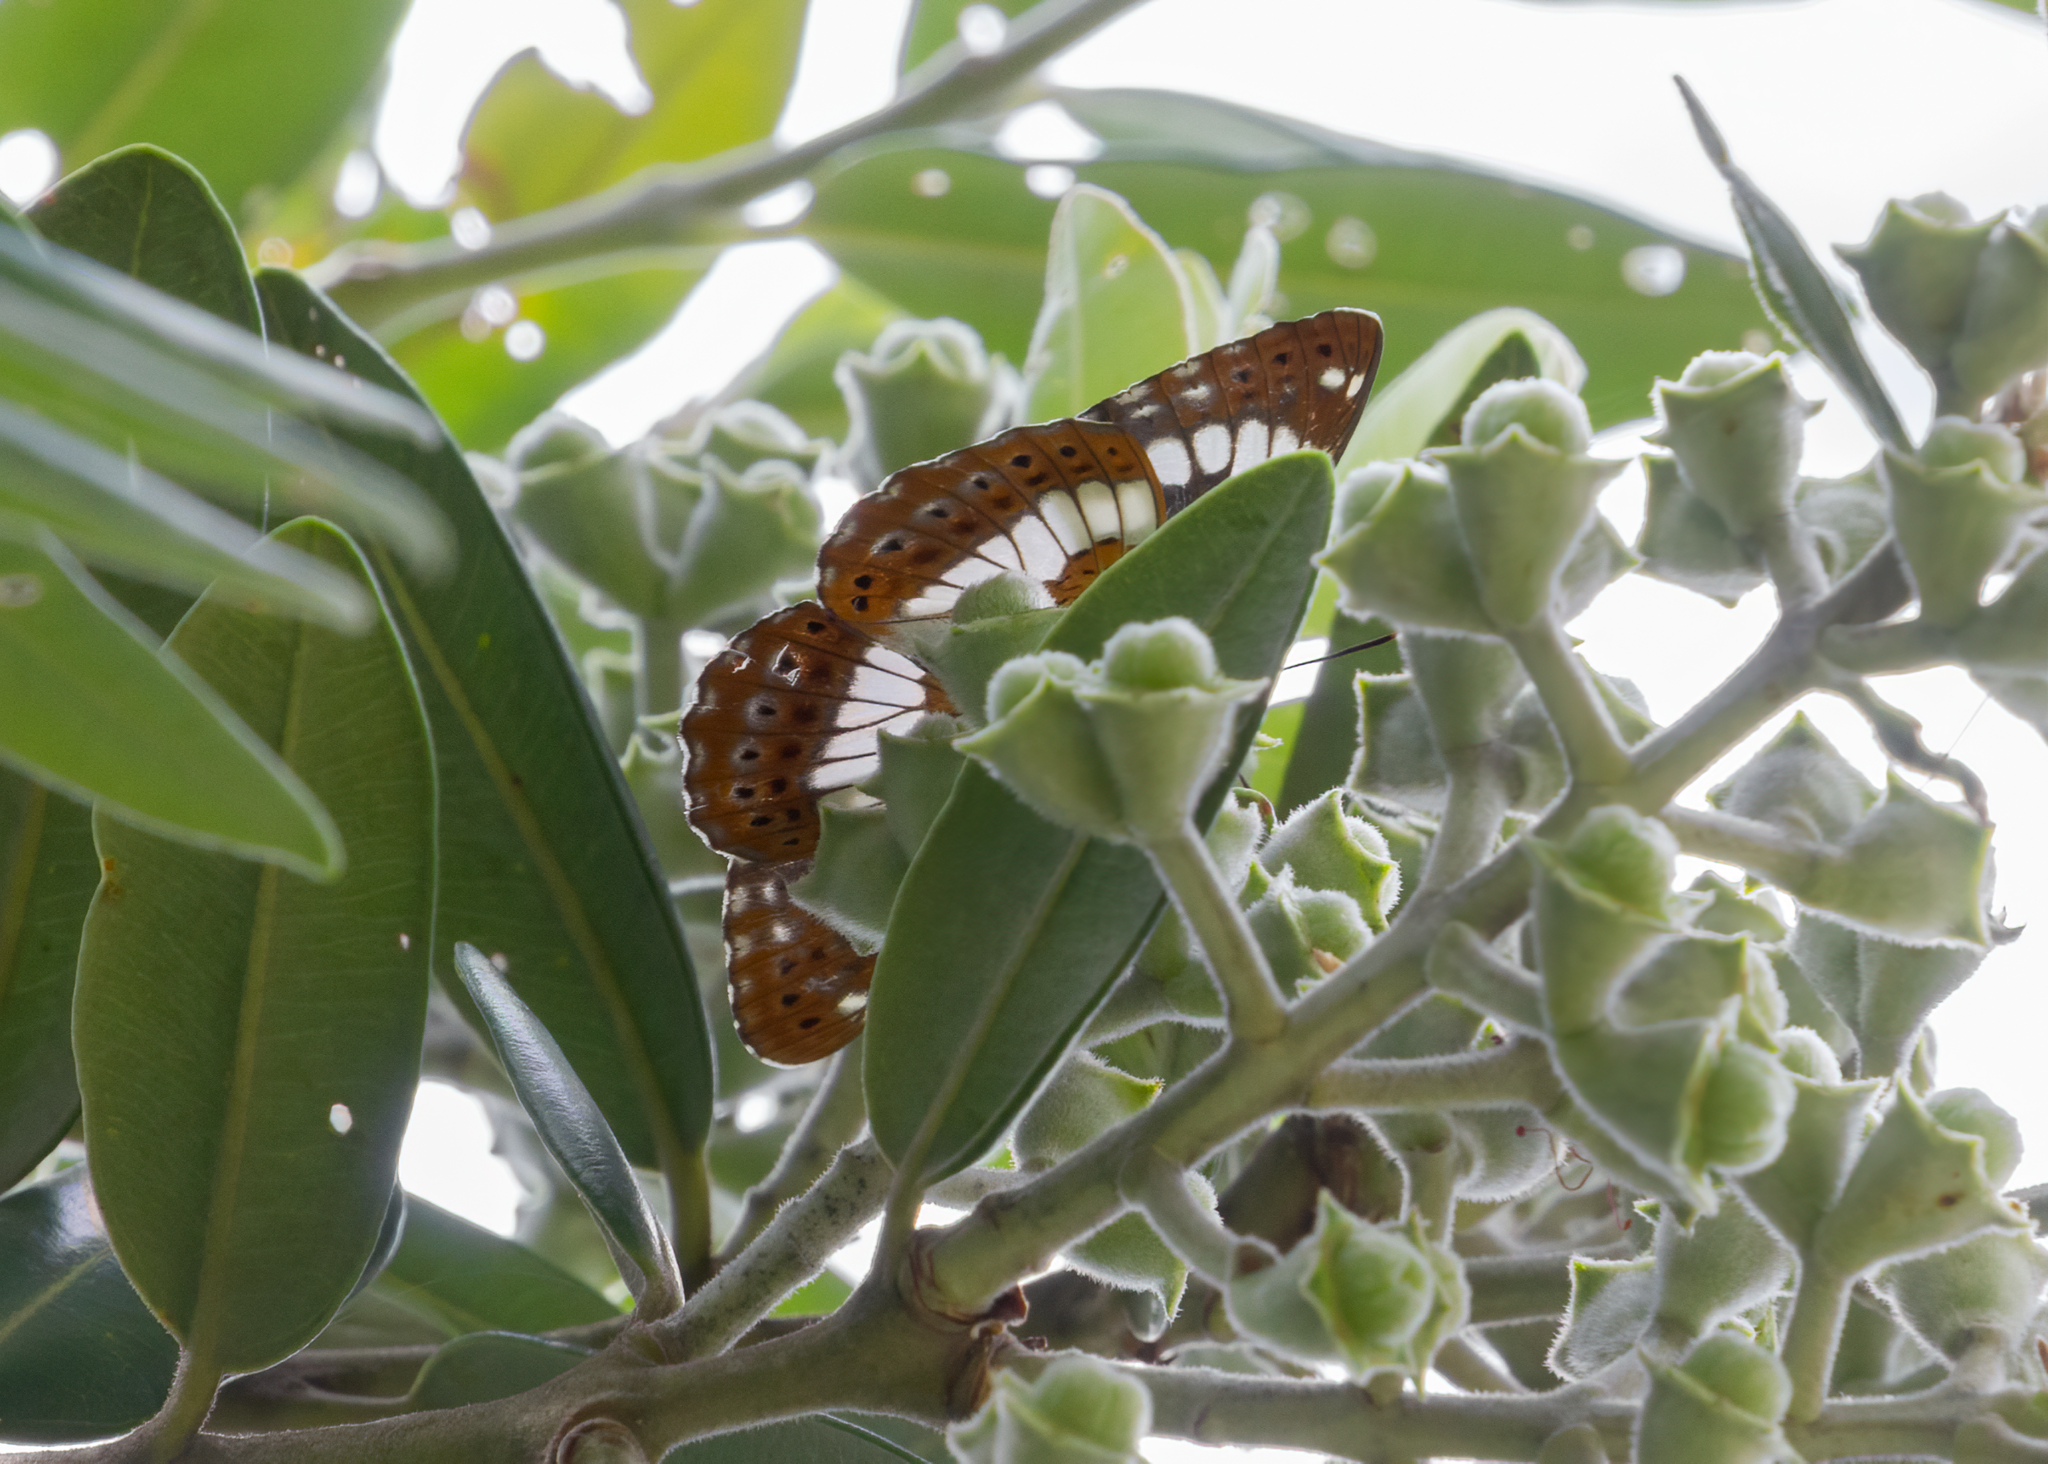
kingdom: Animalia
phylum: Arthropoda
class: Insecta
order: Lepidoptera
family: Nymphalidae
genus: Ladoga
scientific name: Ladoga camilla
